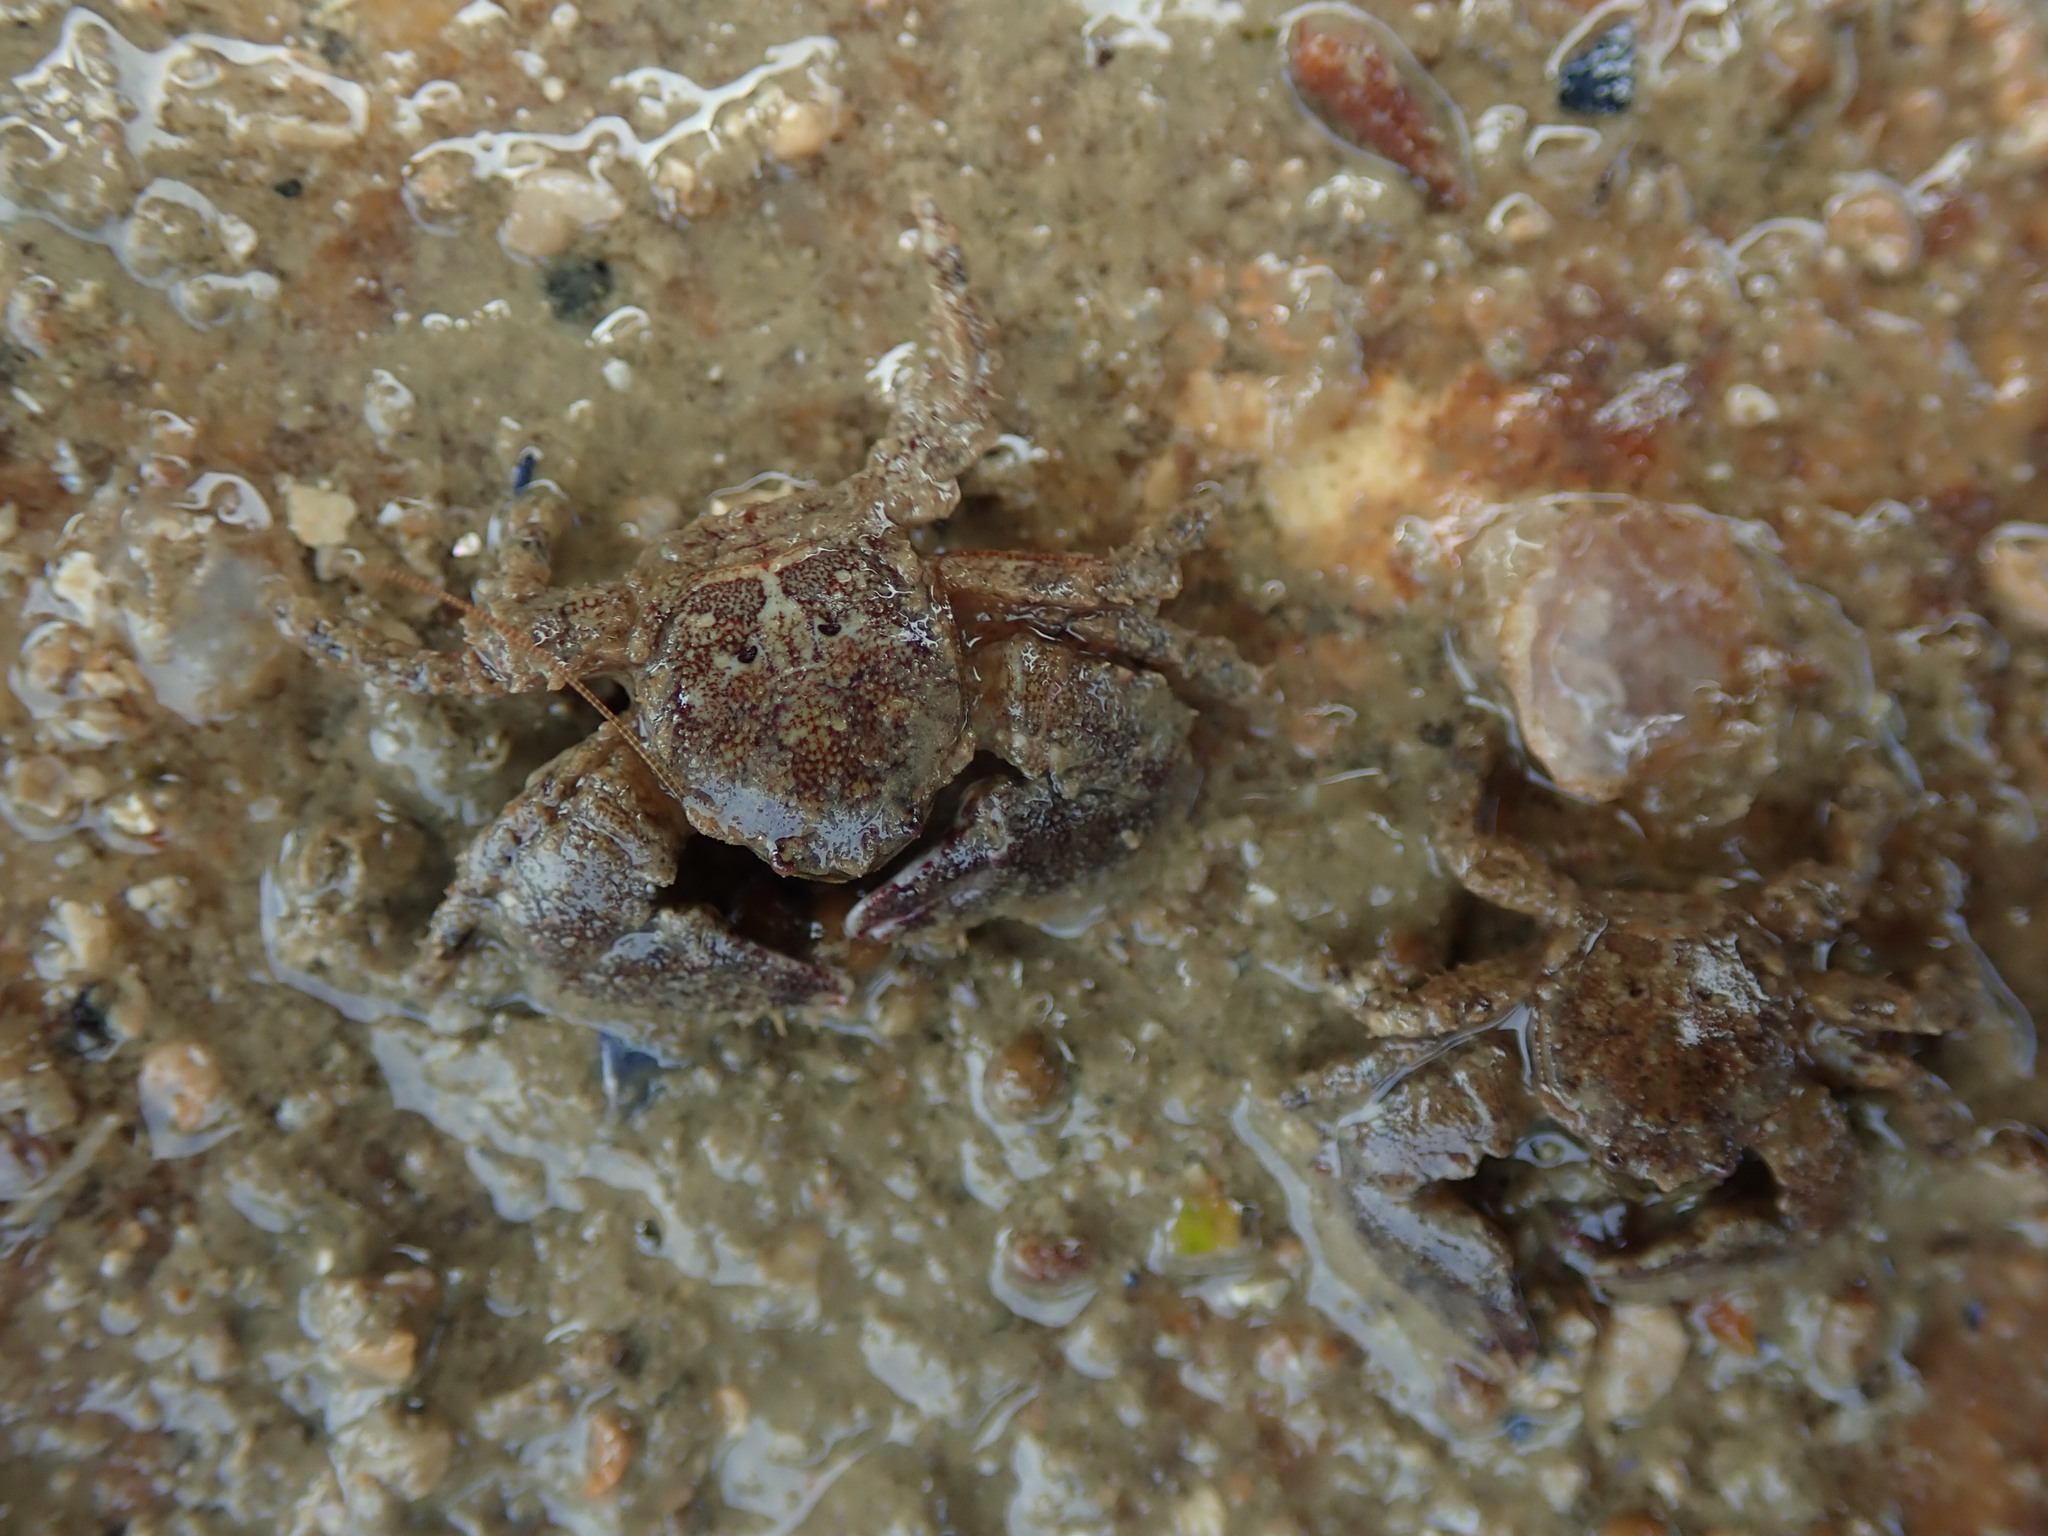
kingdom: Animalia
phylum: Arthropoda
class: Malacostraca
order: Decapoda
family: Porcellanidae
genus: Porcellana
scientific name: Porcellana platycheles
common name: Porcelain crab
